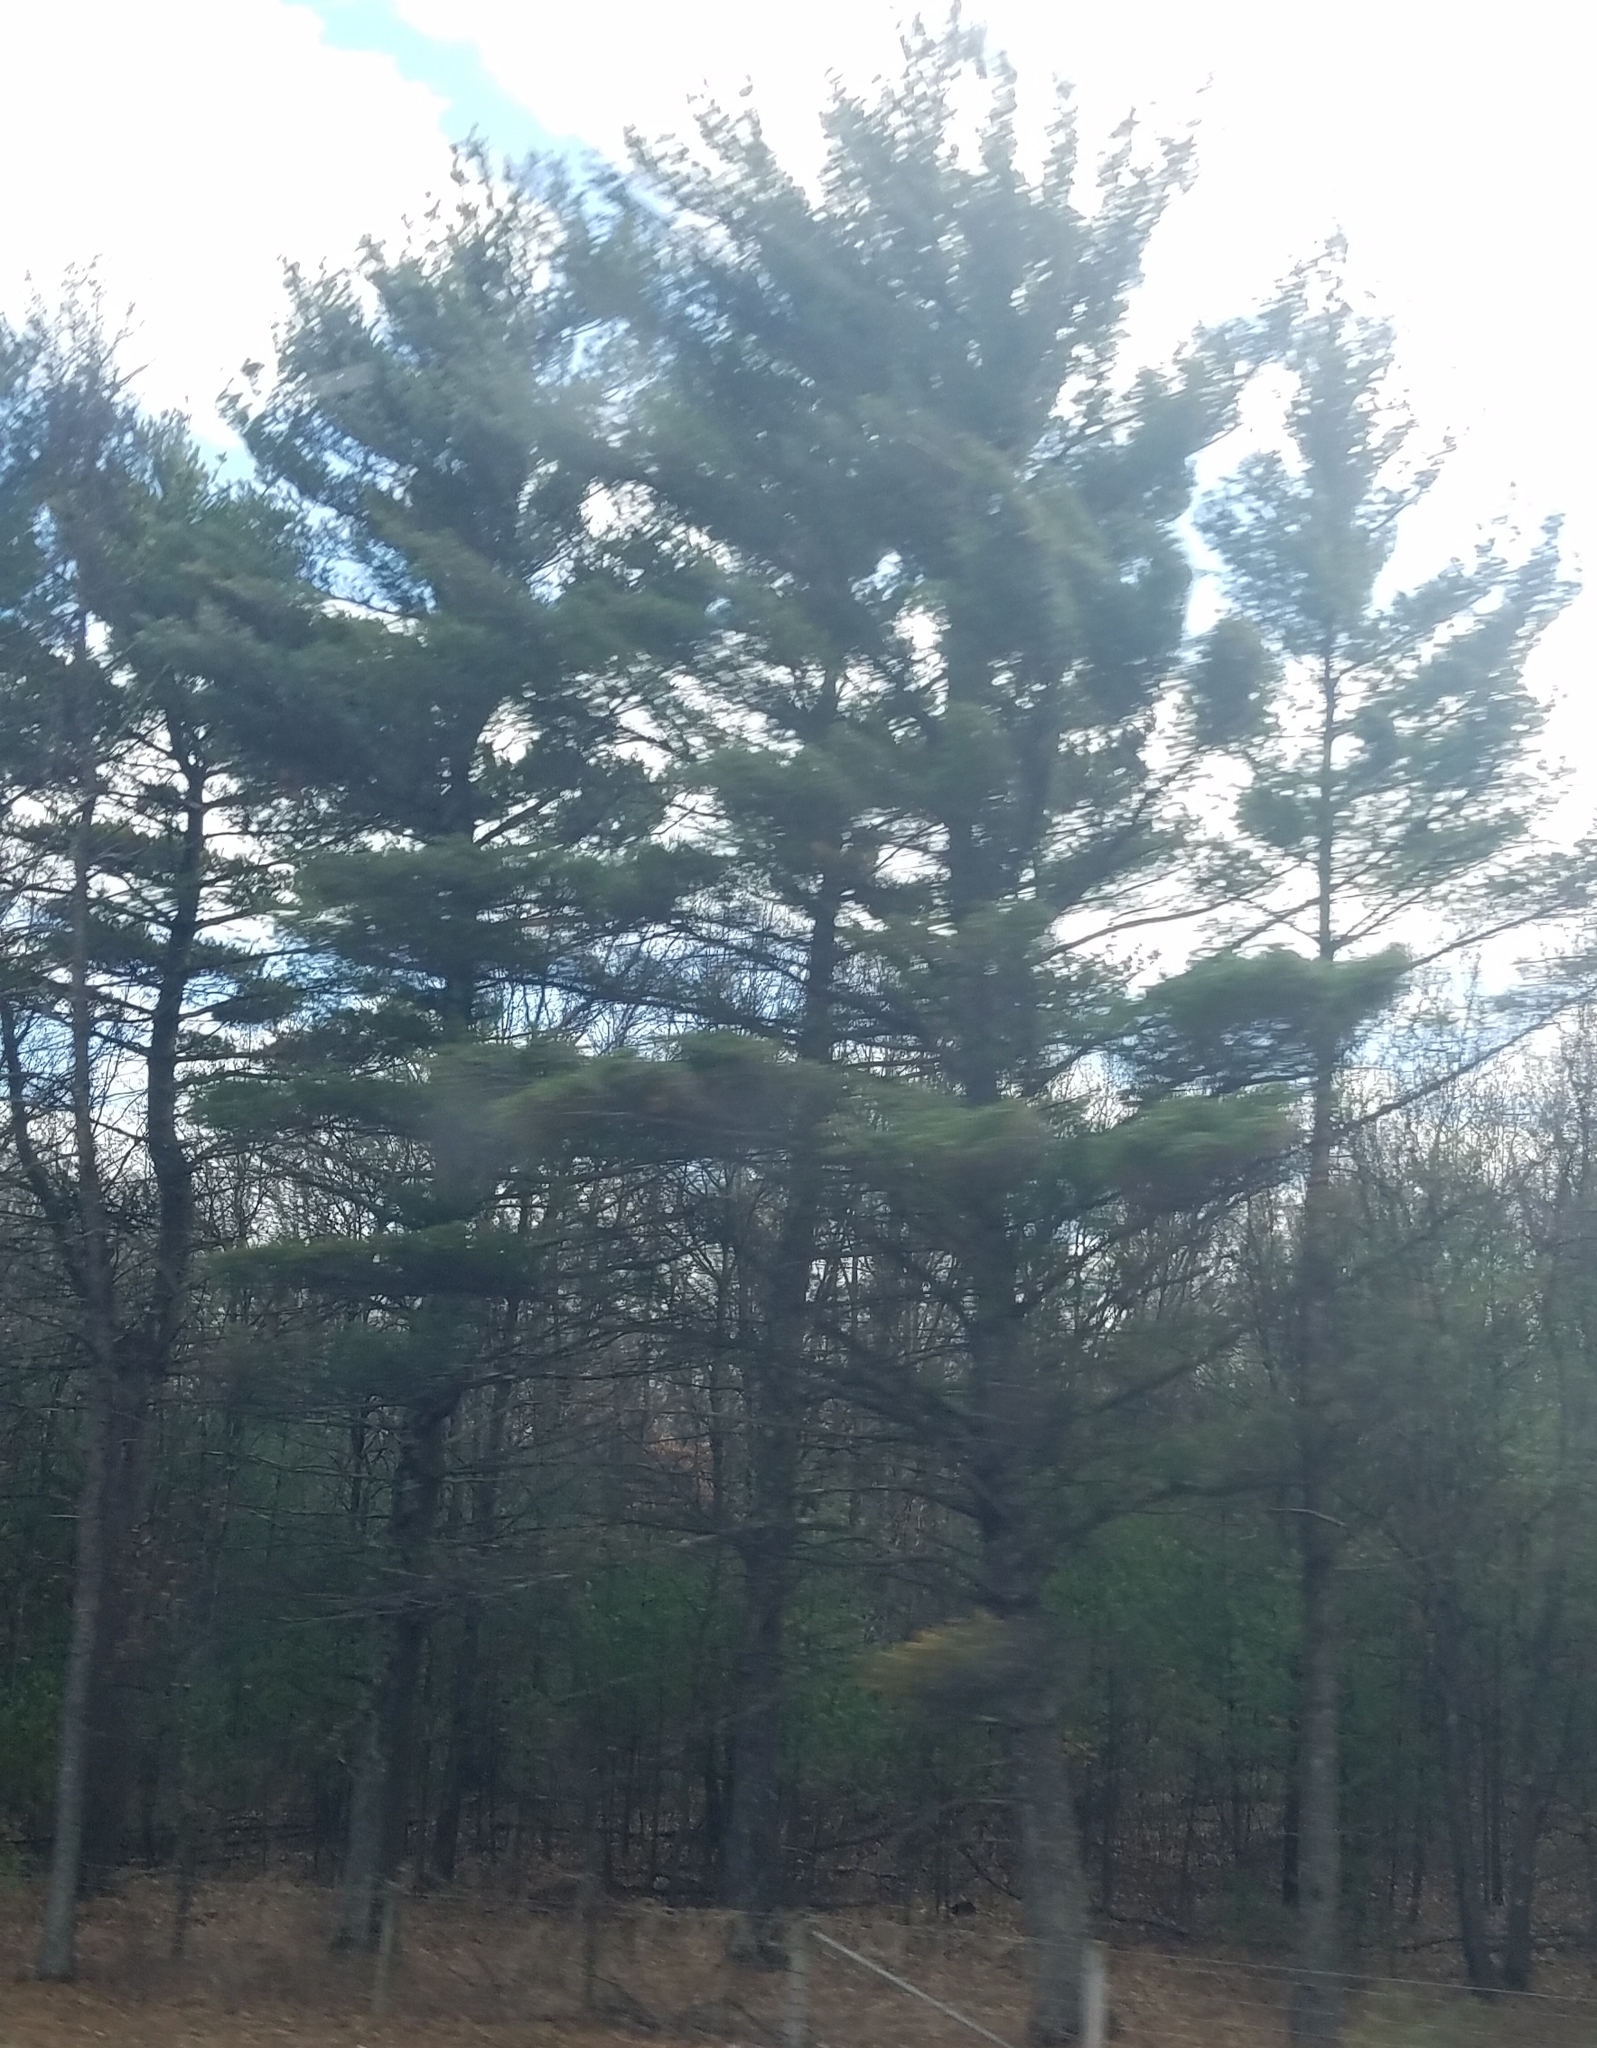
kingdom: Plantae
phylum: Tracheophyta
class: Pinopsida
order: Pinales
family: Pinaceae
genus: Pinus
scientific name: Pinus strobus
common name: Weymouth pine
